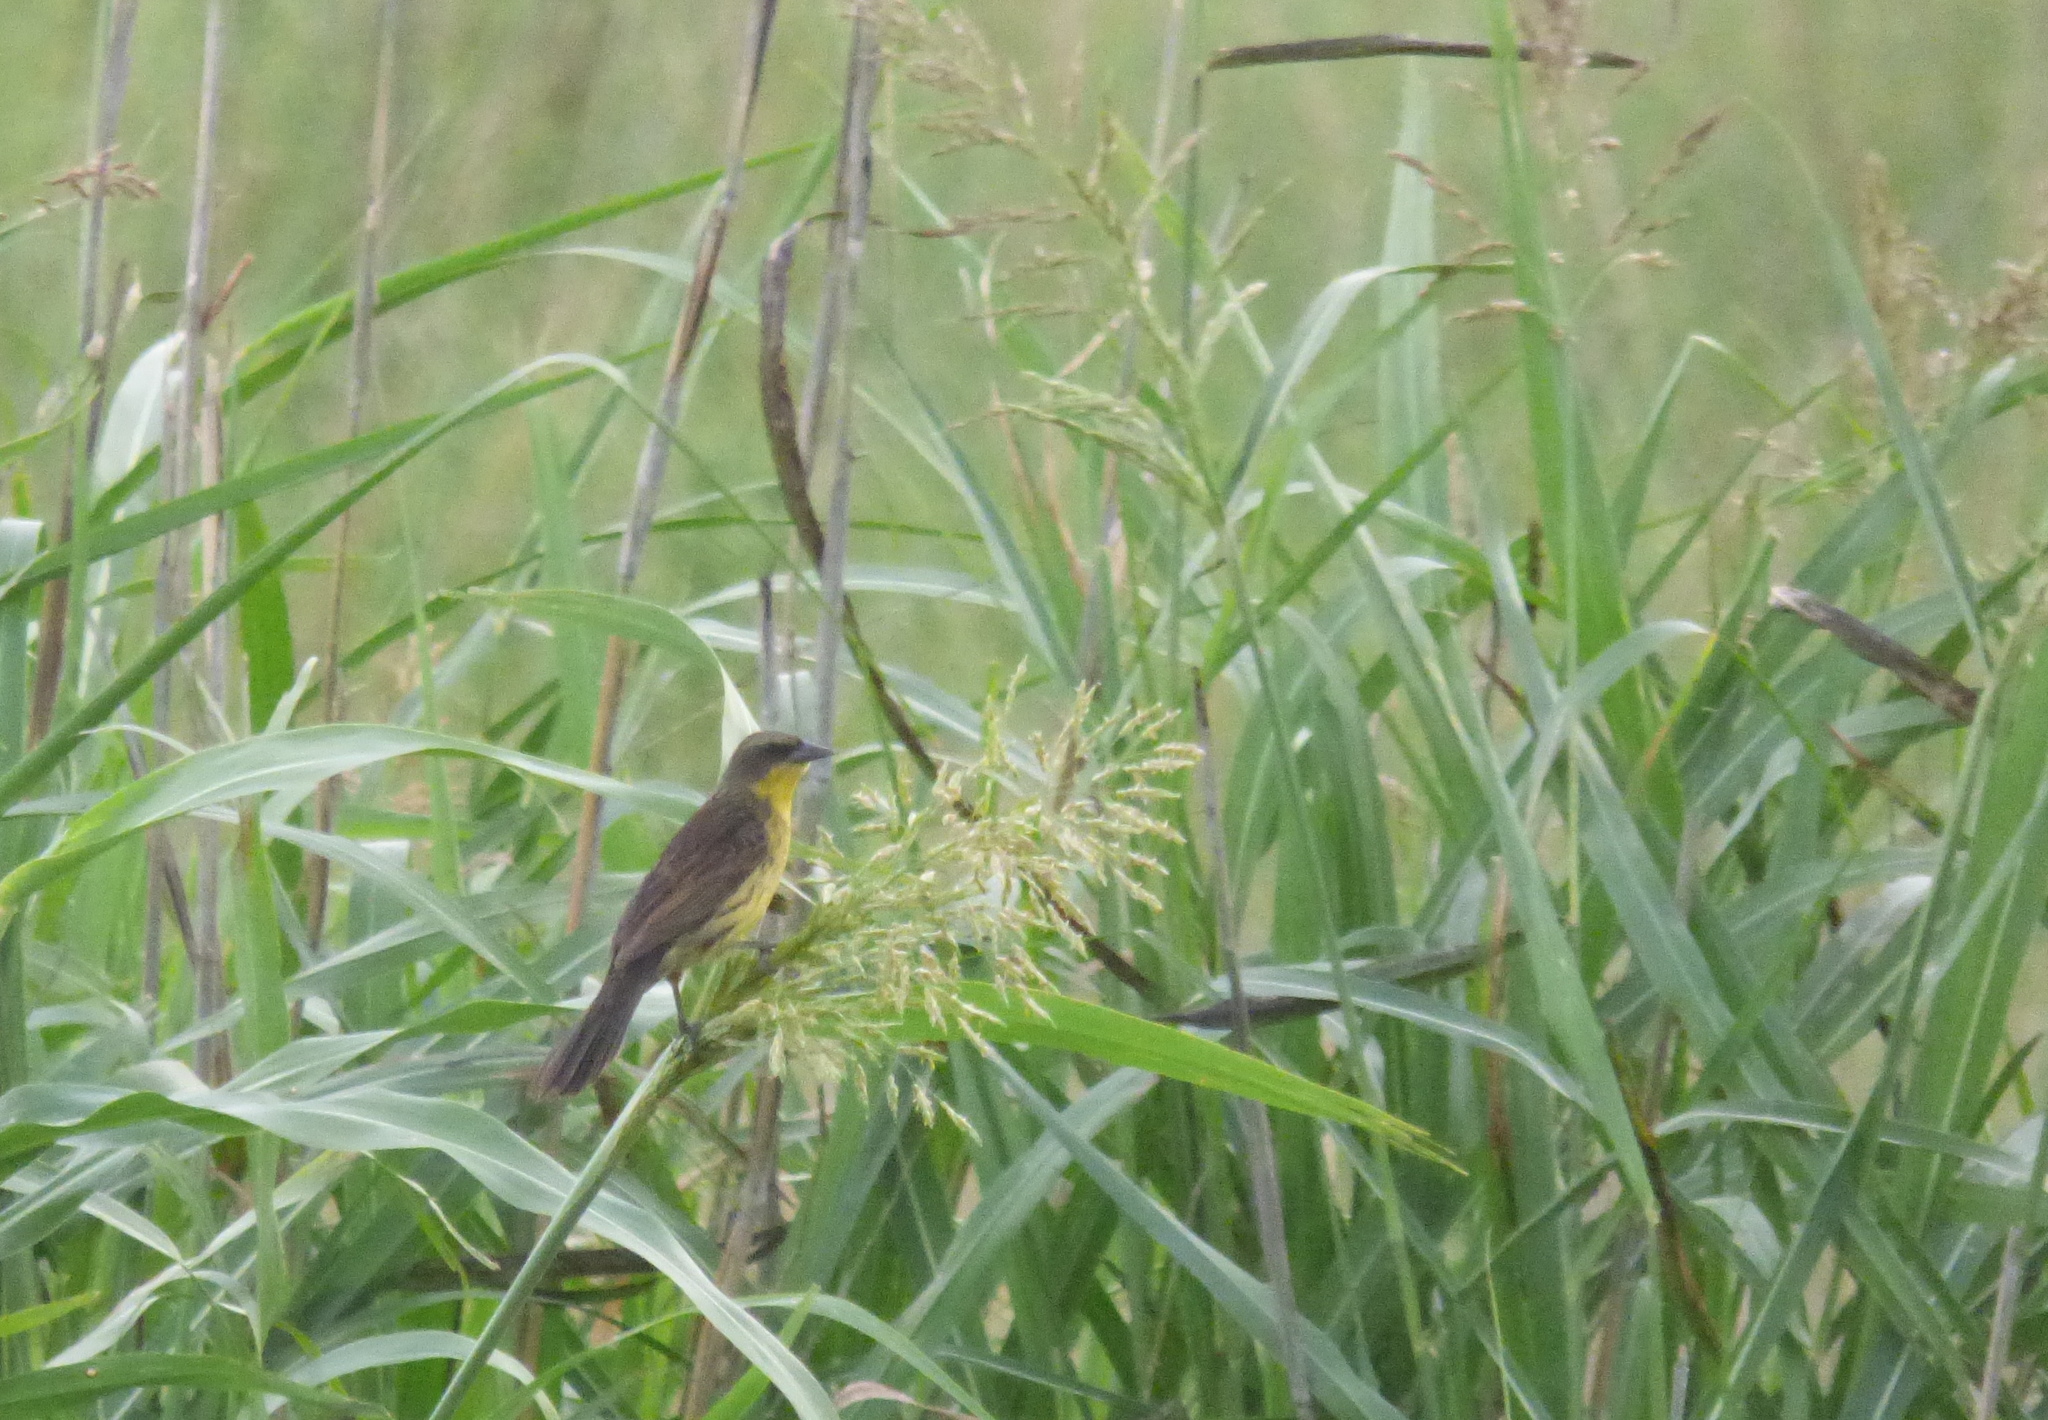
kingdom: Animalia
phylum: Chordata
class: Aves
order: Passeriformes
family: Icteridae
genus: Agelasticus
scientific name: Agelasticus cyanopus
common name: Unicolored blackbird
